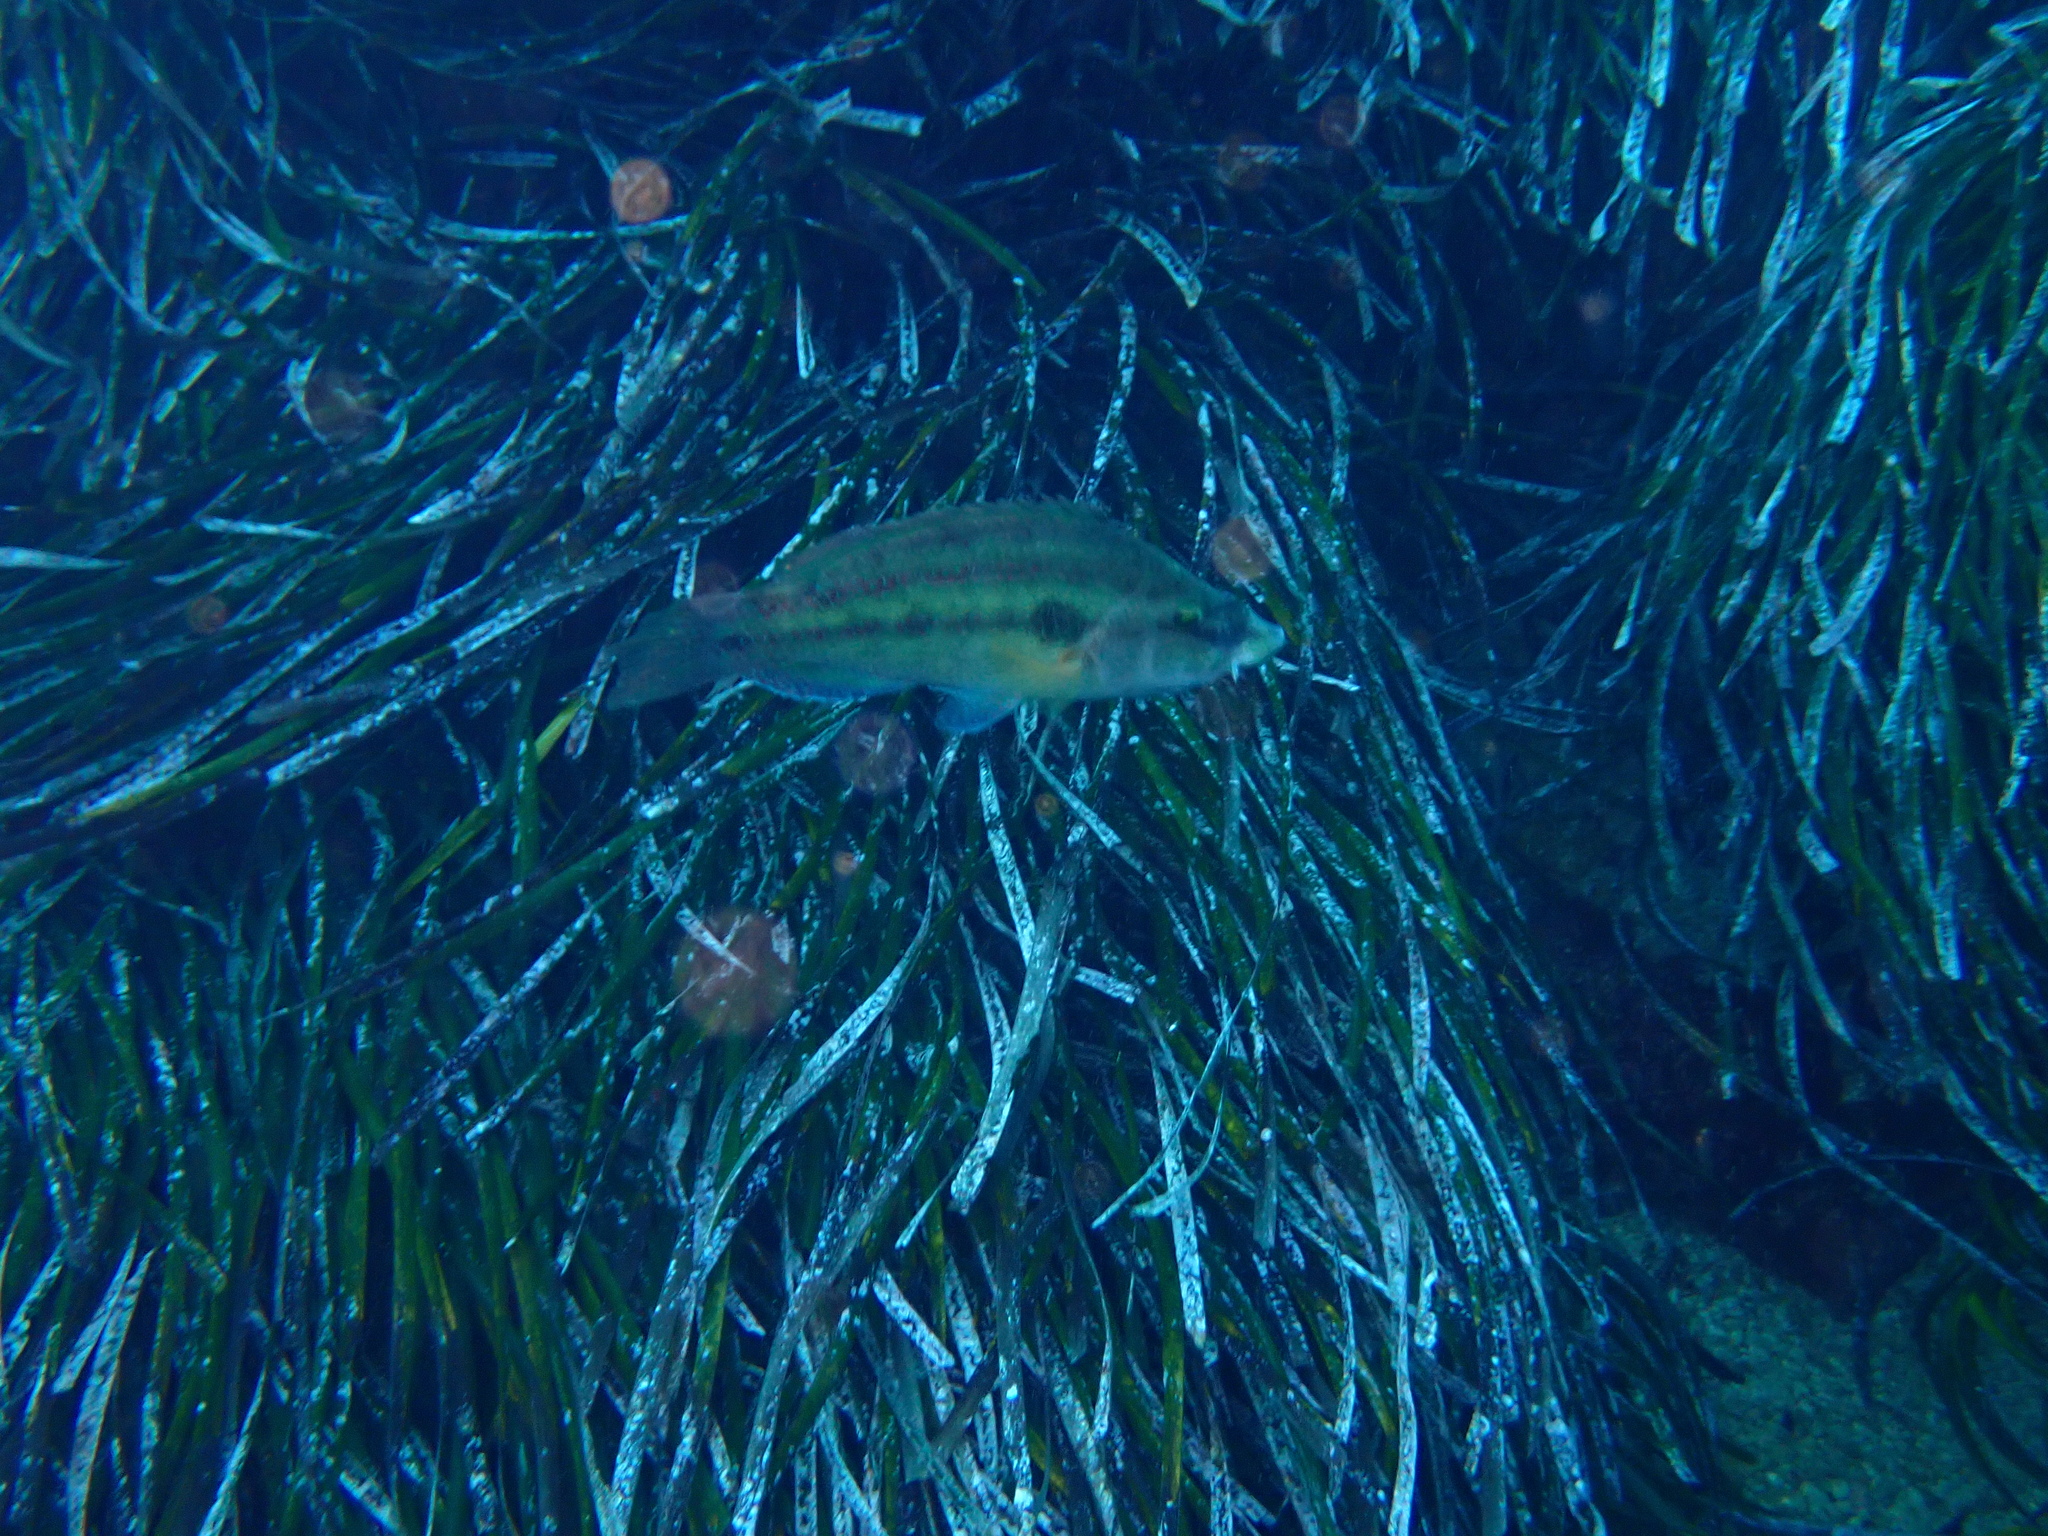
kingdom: Animalia
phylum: Chordata
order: Perciformes
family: Labridae
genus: Symphodus
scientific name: Symphodus tinca
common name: Peacock wrasse
